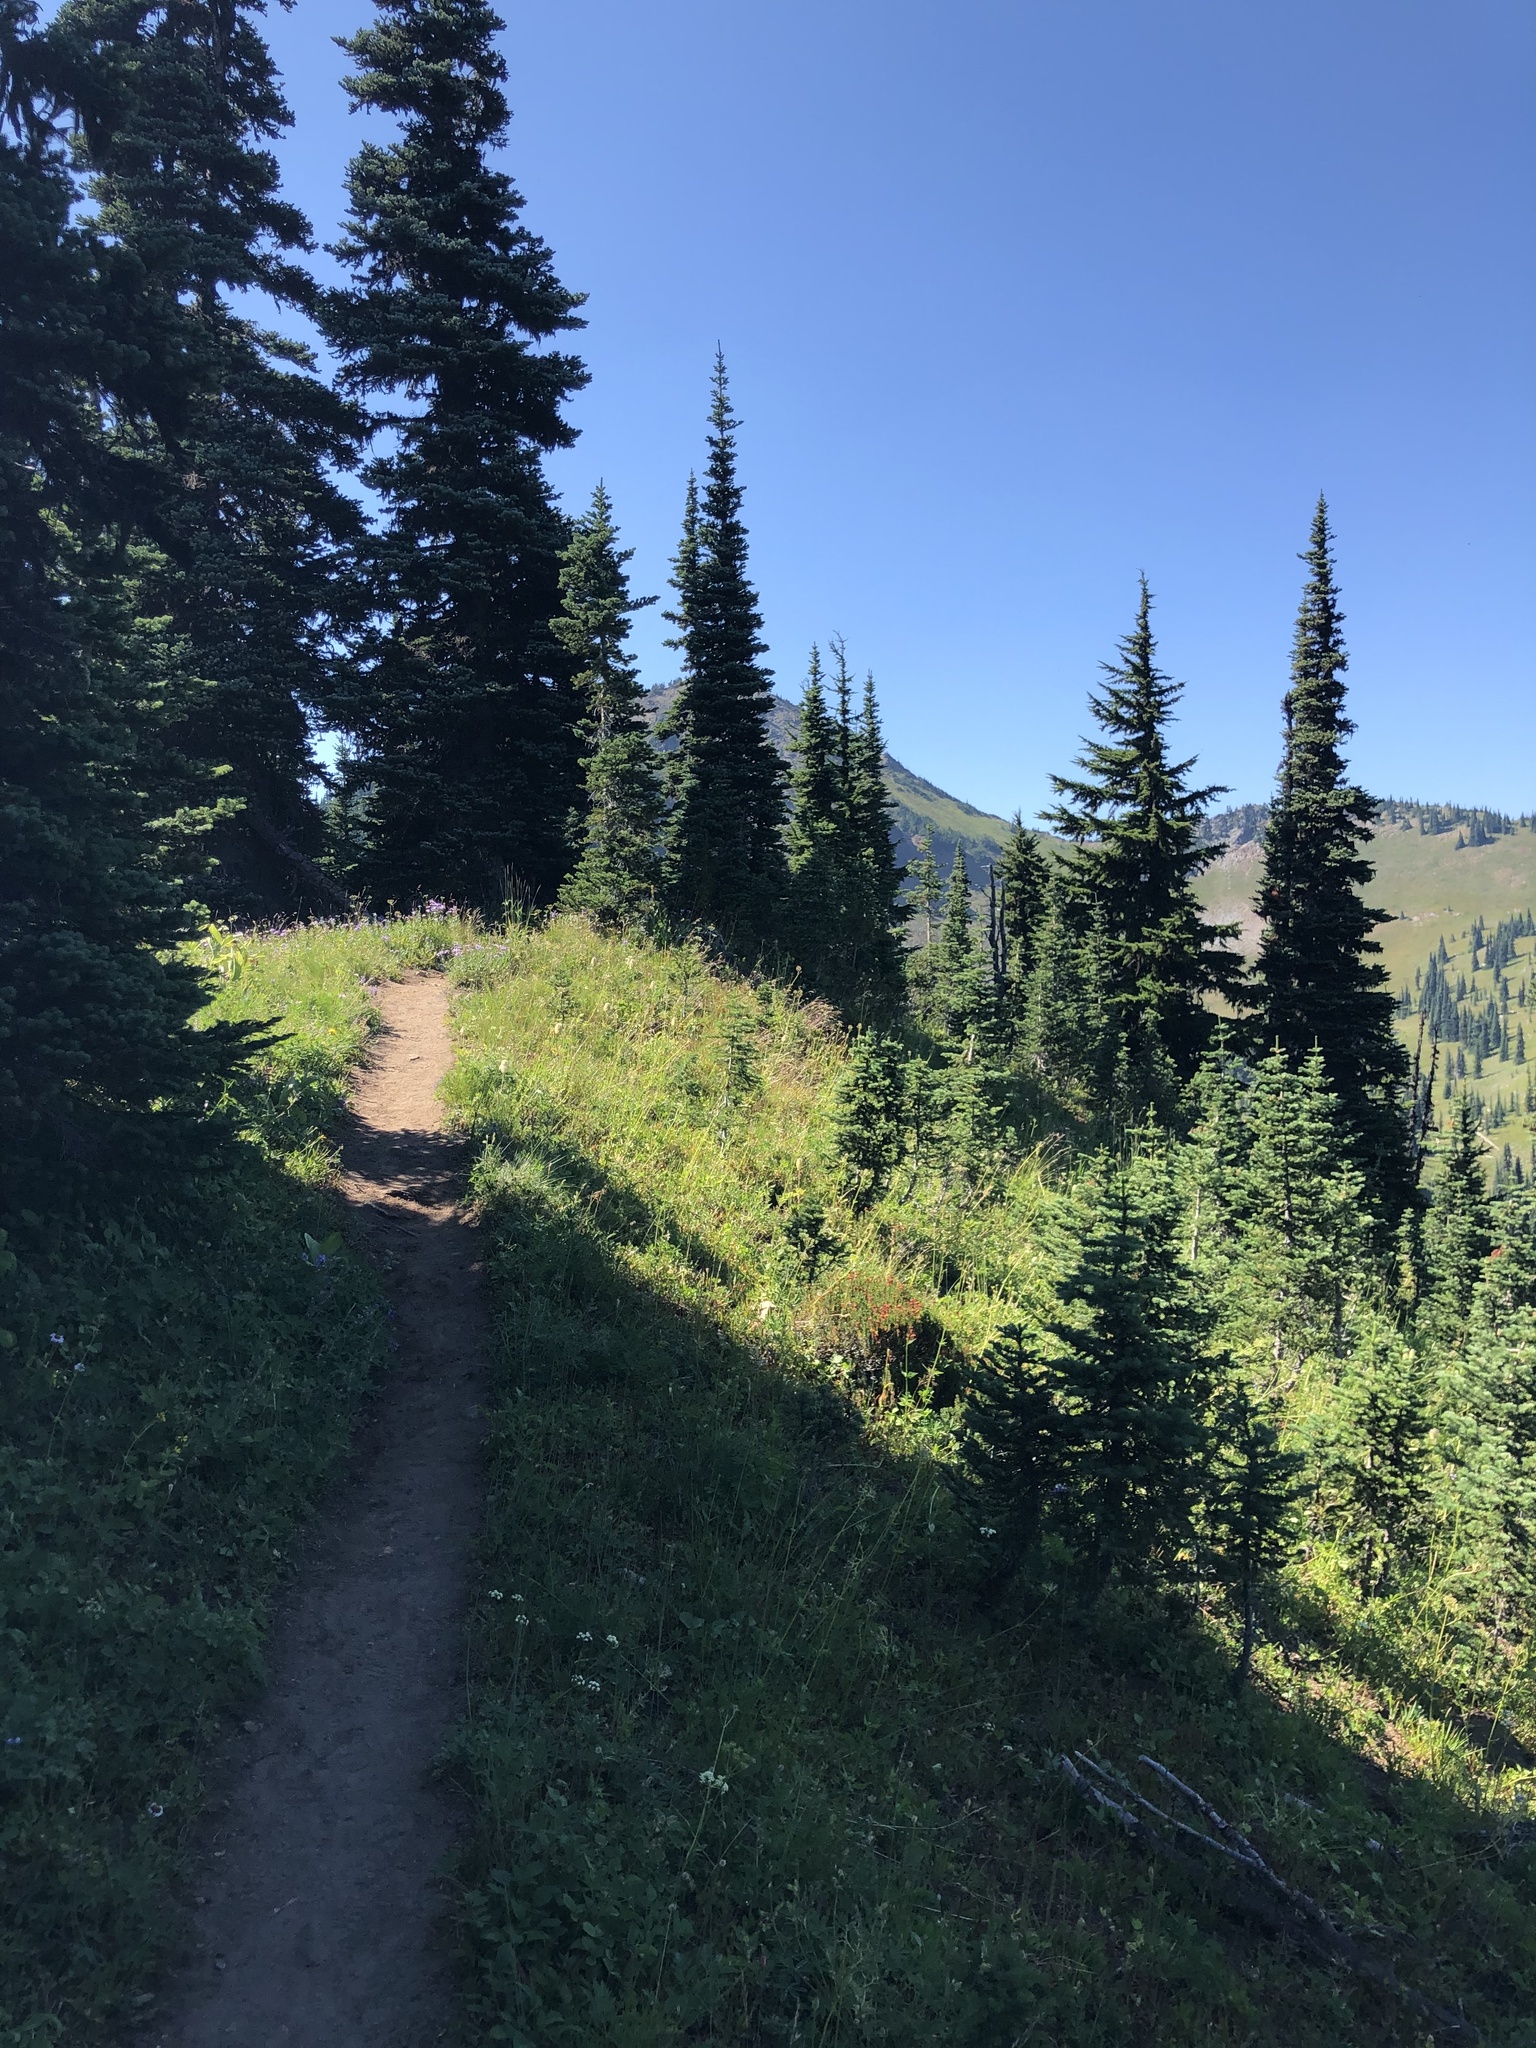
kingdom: Plantae
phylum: Tracheophyta
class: Pinopsida
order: Pinales
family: Pinaceae
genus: Tsuga
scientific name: Tsuga mertensiana
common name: Mountain hemlock
